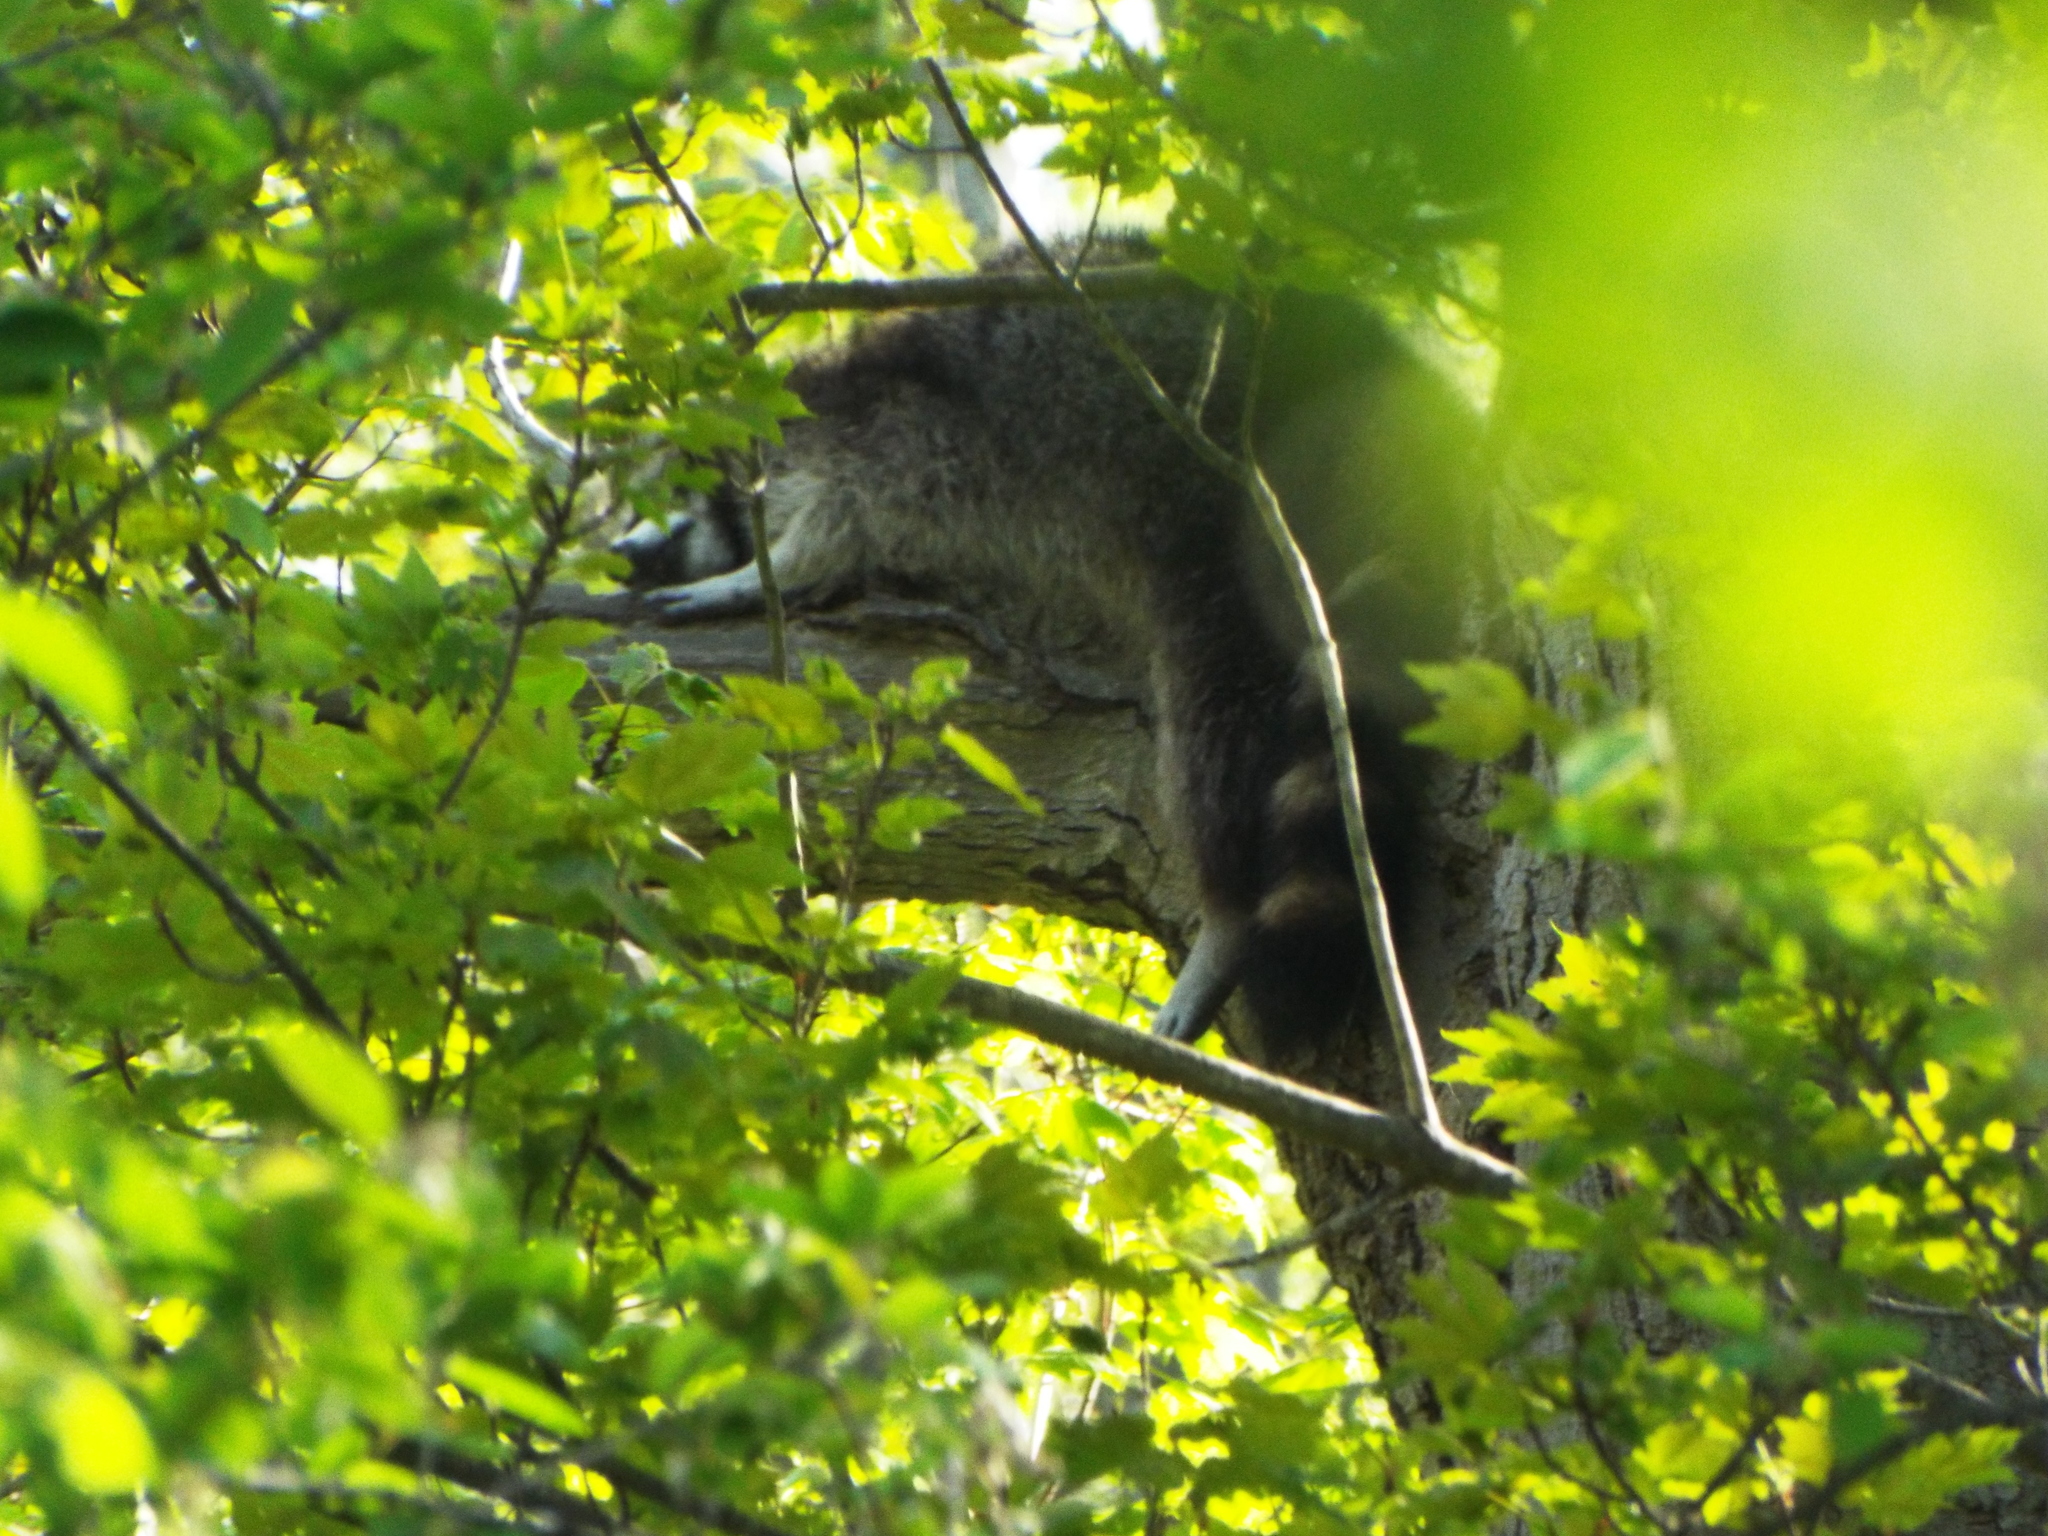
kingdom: Animalia
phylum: Chordata
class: Mammalia
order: Carnivora
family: Procyonidae
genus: Procyon
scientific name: Procyon lotor
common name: Raccoon
